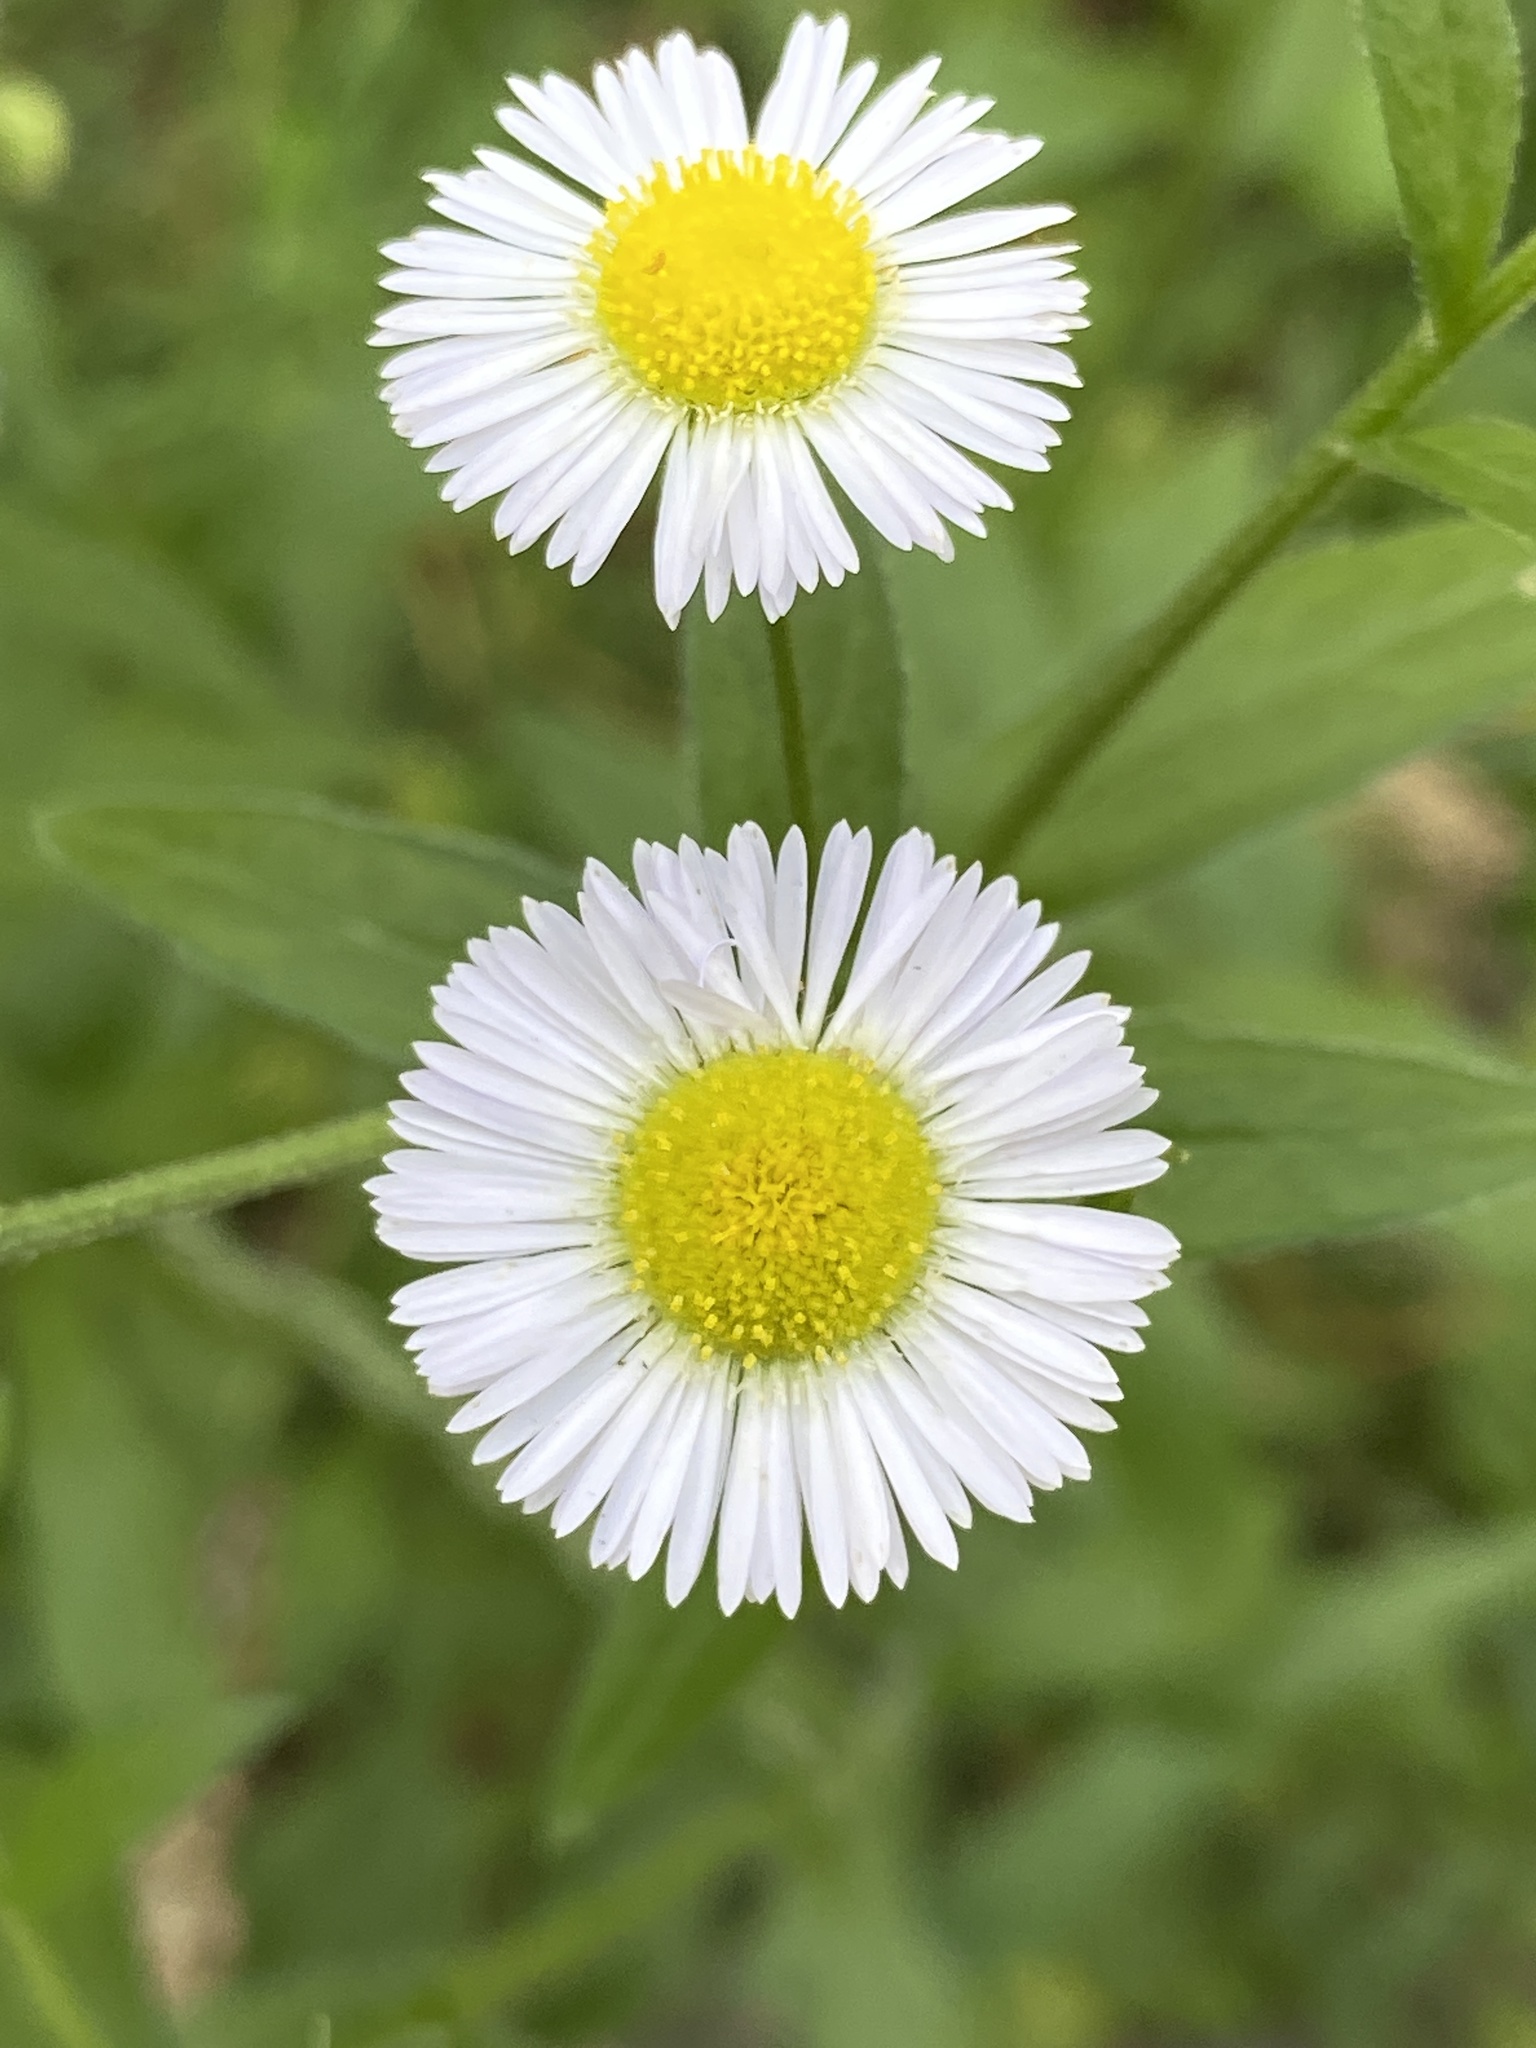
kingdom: Plantae
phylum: Tracheophyta
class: Magnoliopsida
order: Asterales
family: Asteraceae
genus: Erigeron
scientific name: Erigeron annuus
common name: Tall fleabane
